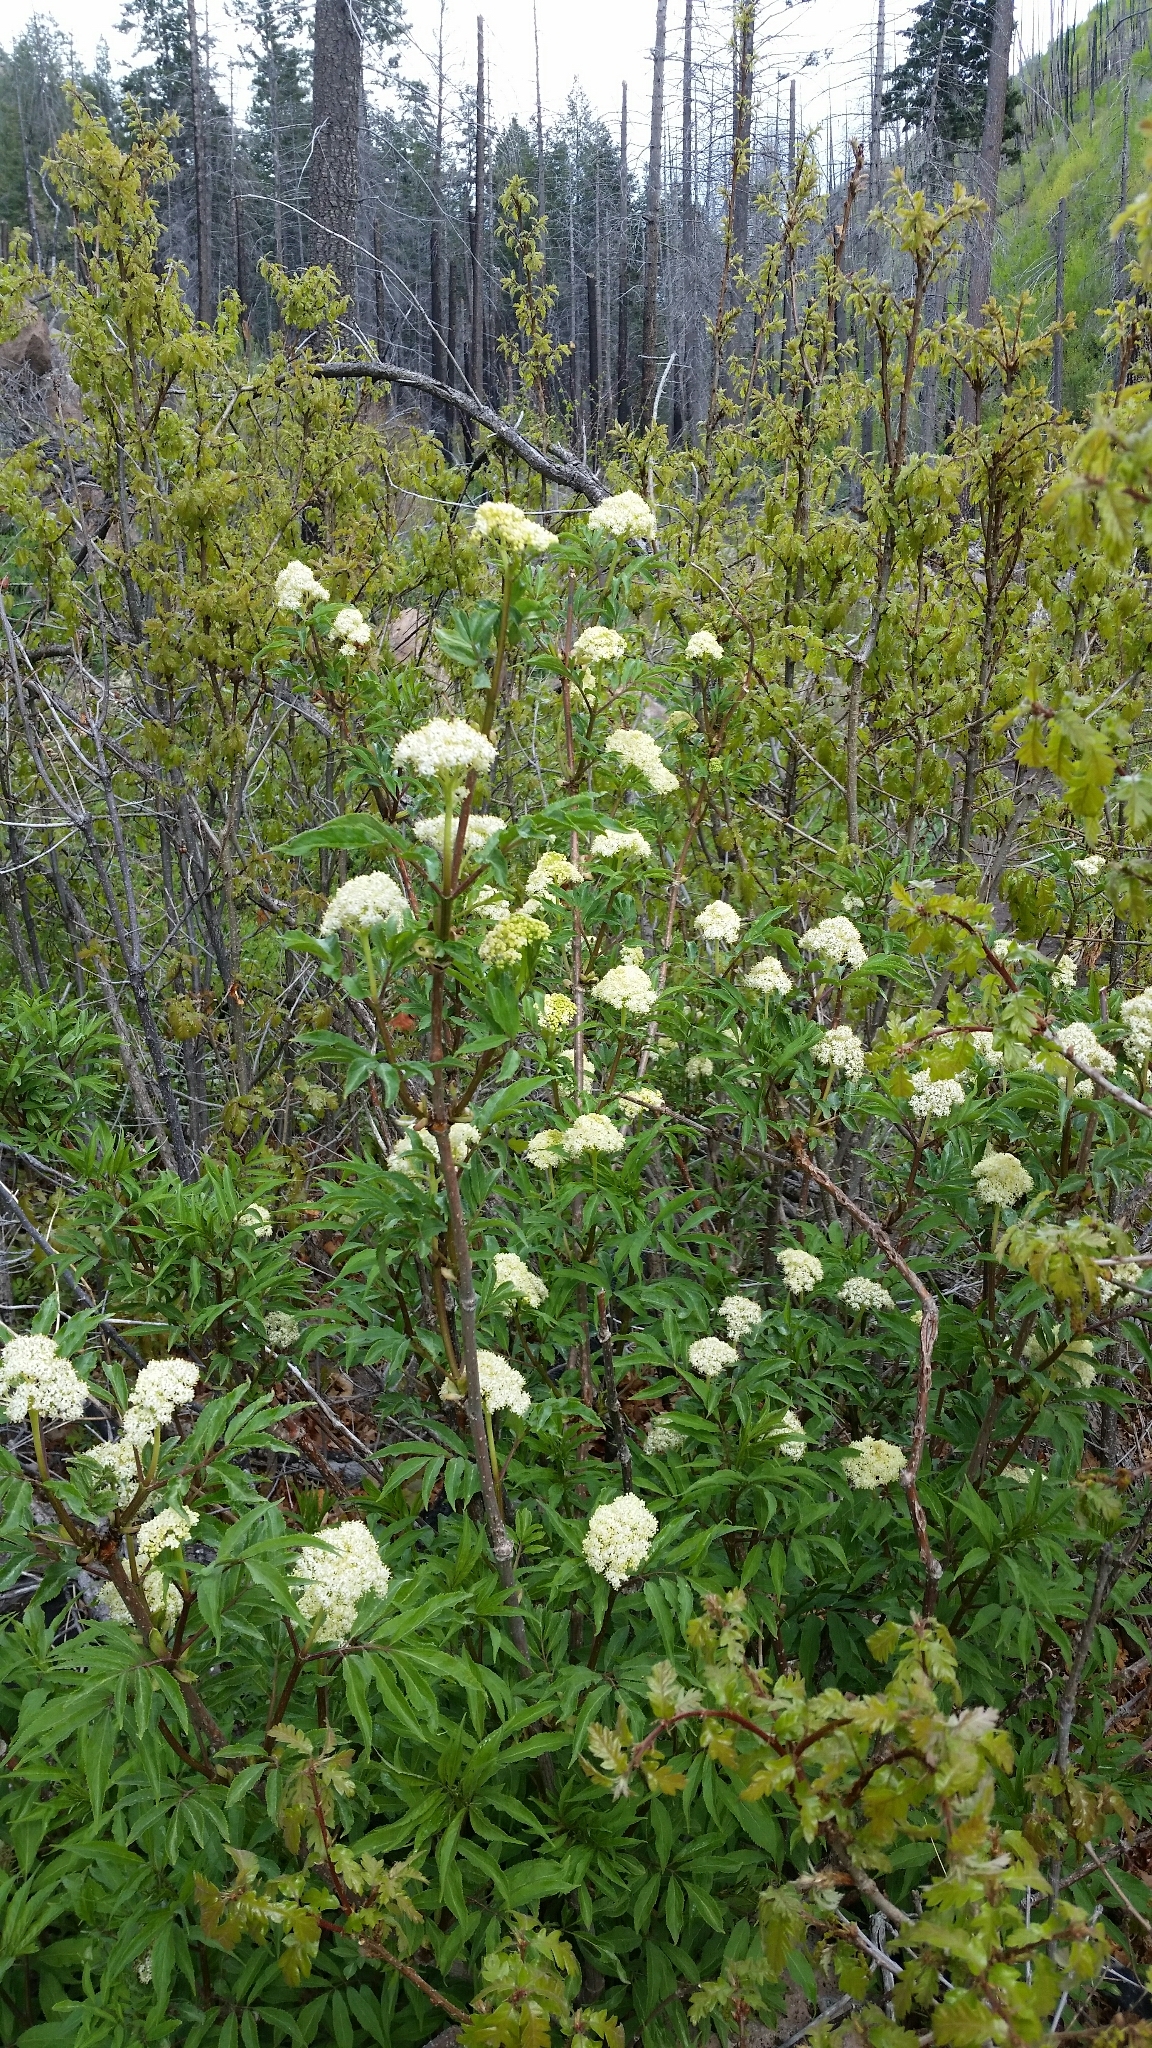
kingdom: Plantae
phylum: Tracheophyta
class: Magnoliopsida
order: Dipsacales
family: Viburnaceae
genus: Sambucus
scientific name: Sambucus racemosa
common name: Red-berried elder
